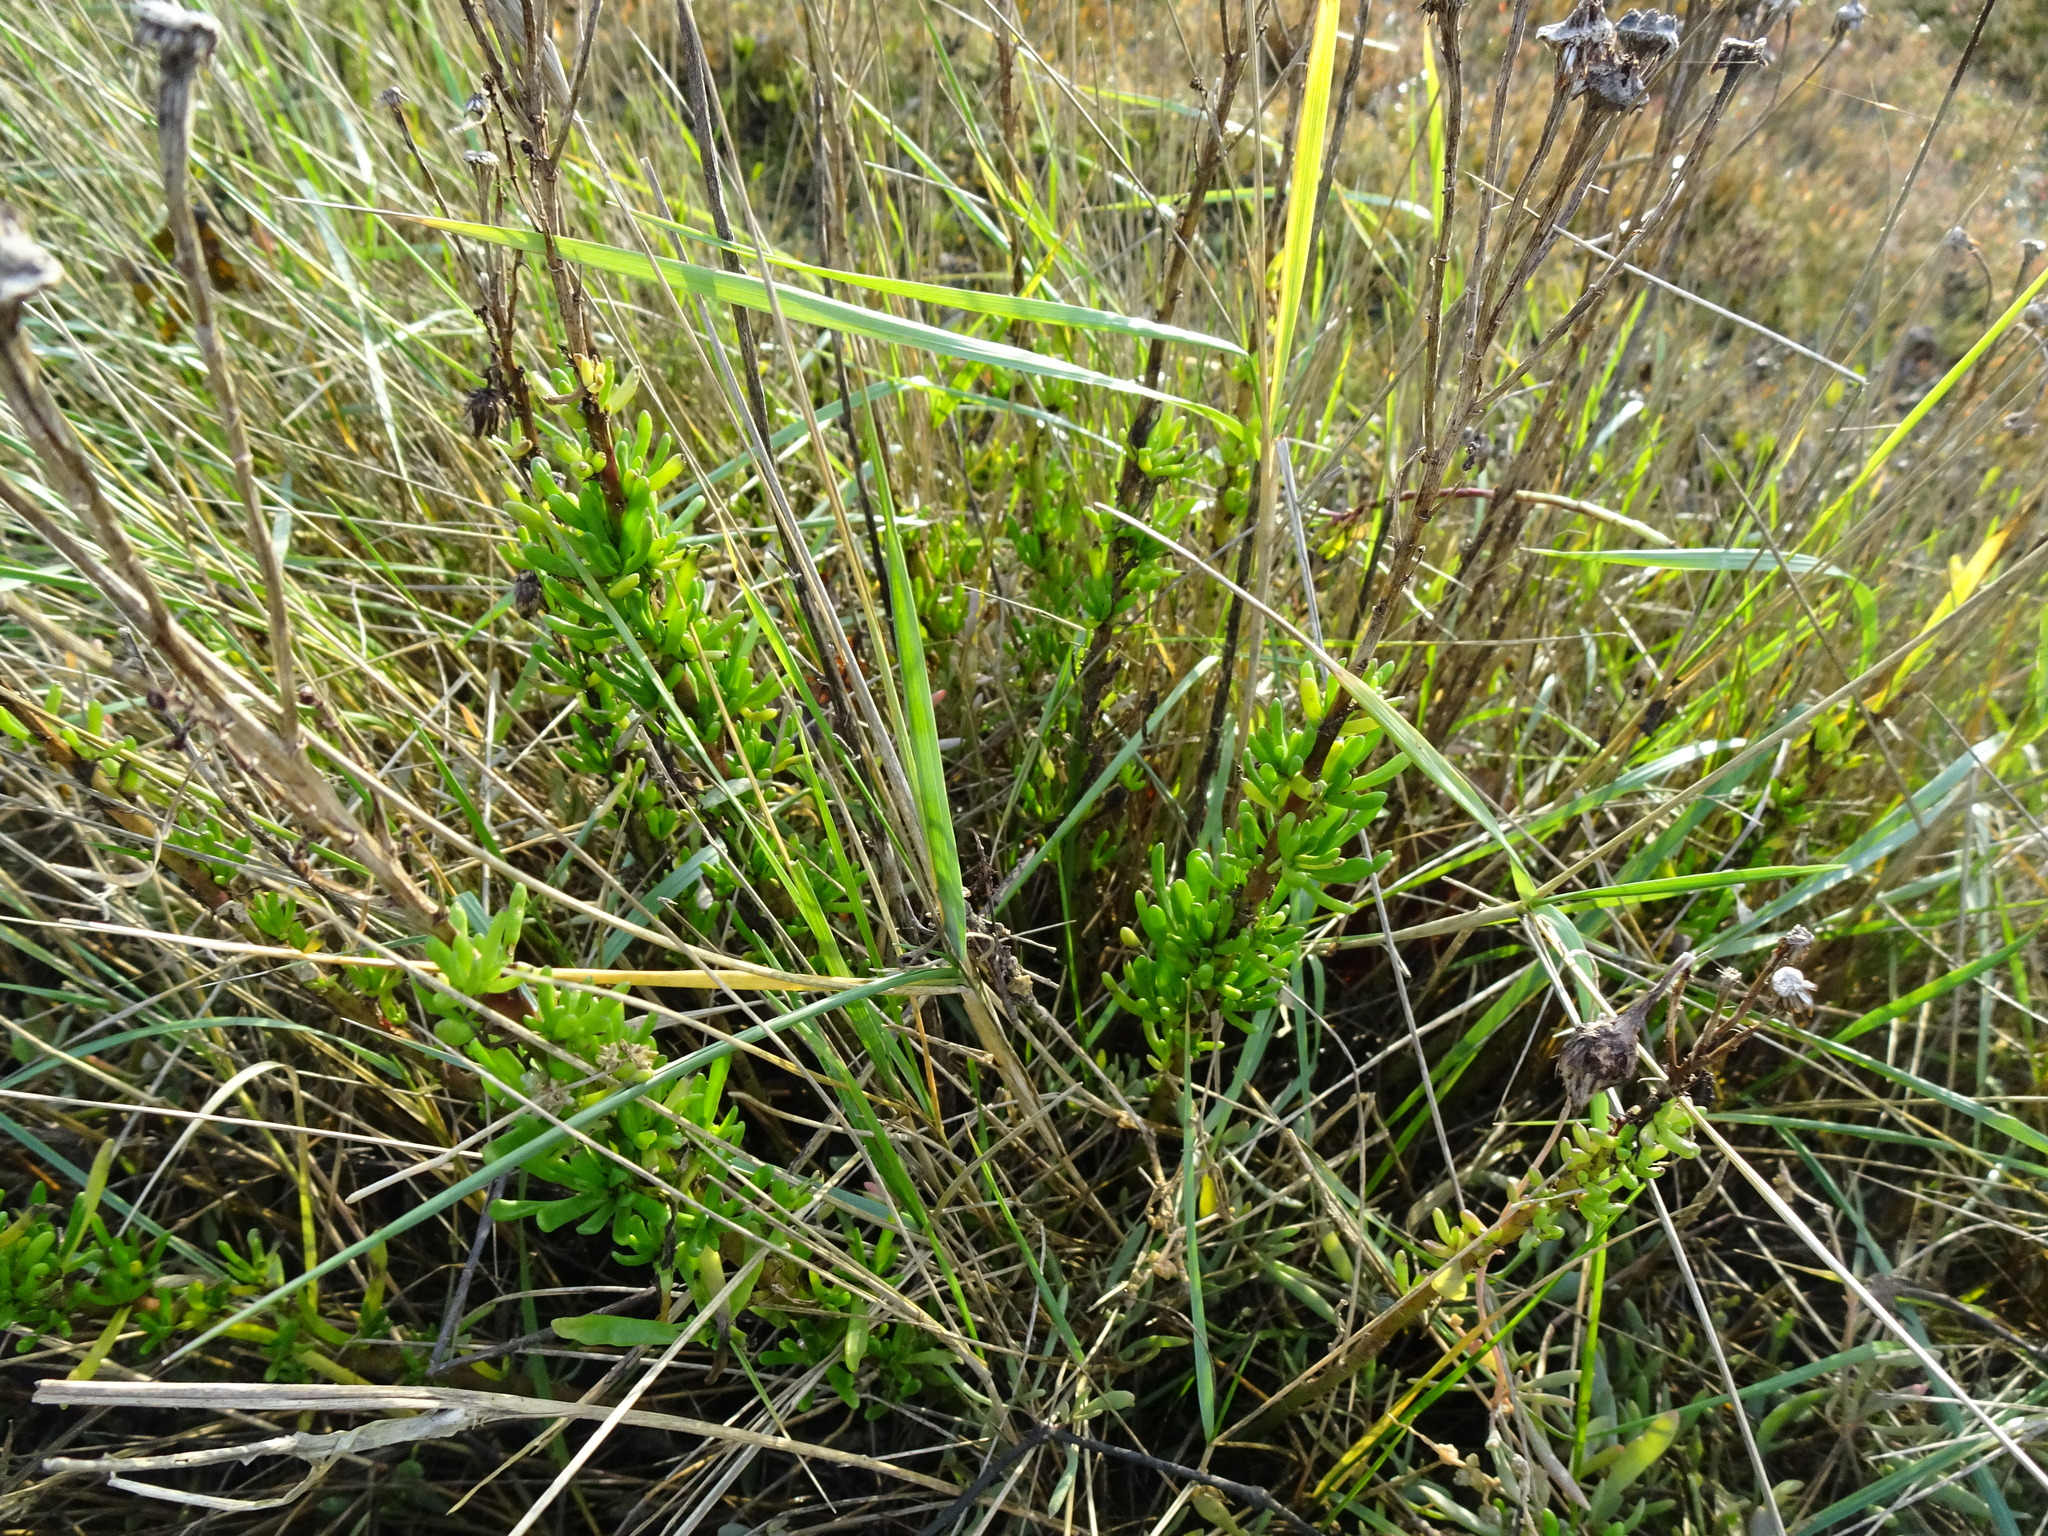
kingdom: Plantae
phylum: Tracheophyta
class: Magnoliopsida
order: Asterales
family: Asteraceae
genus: Limbarda
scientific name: Limbarda crithmoides
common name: Golden samphire
